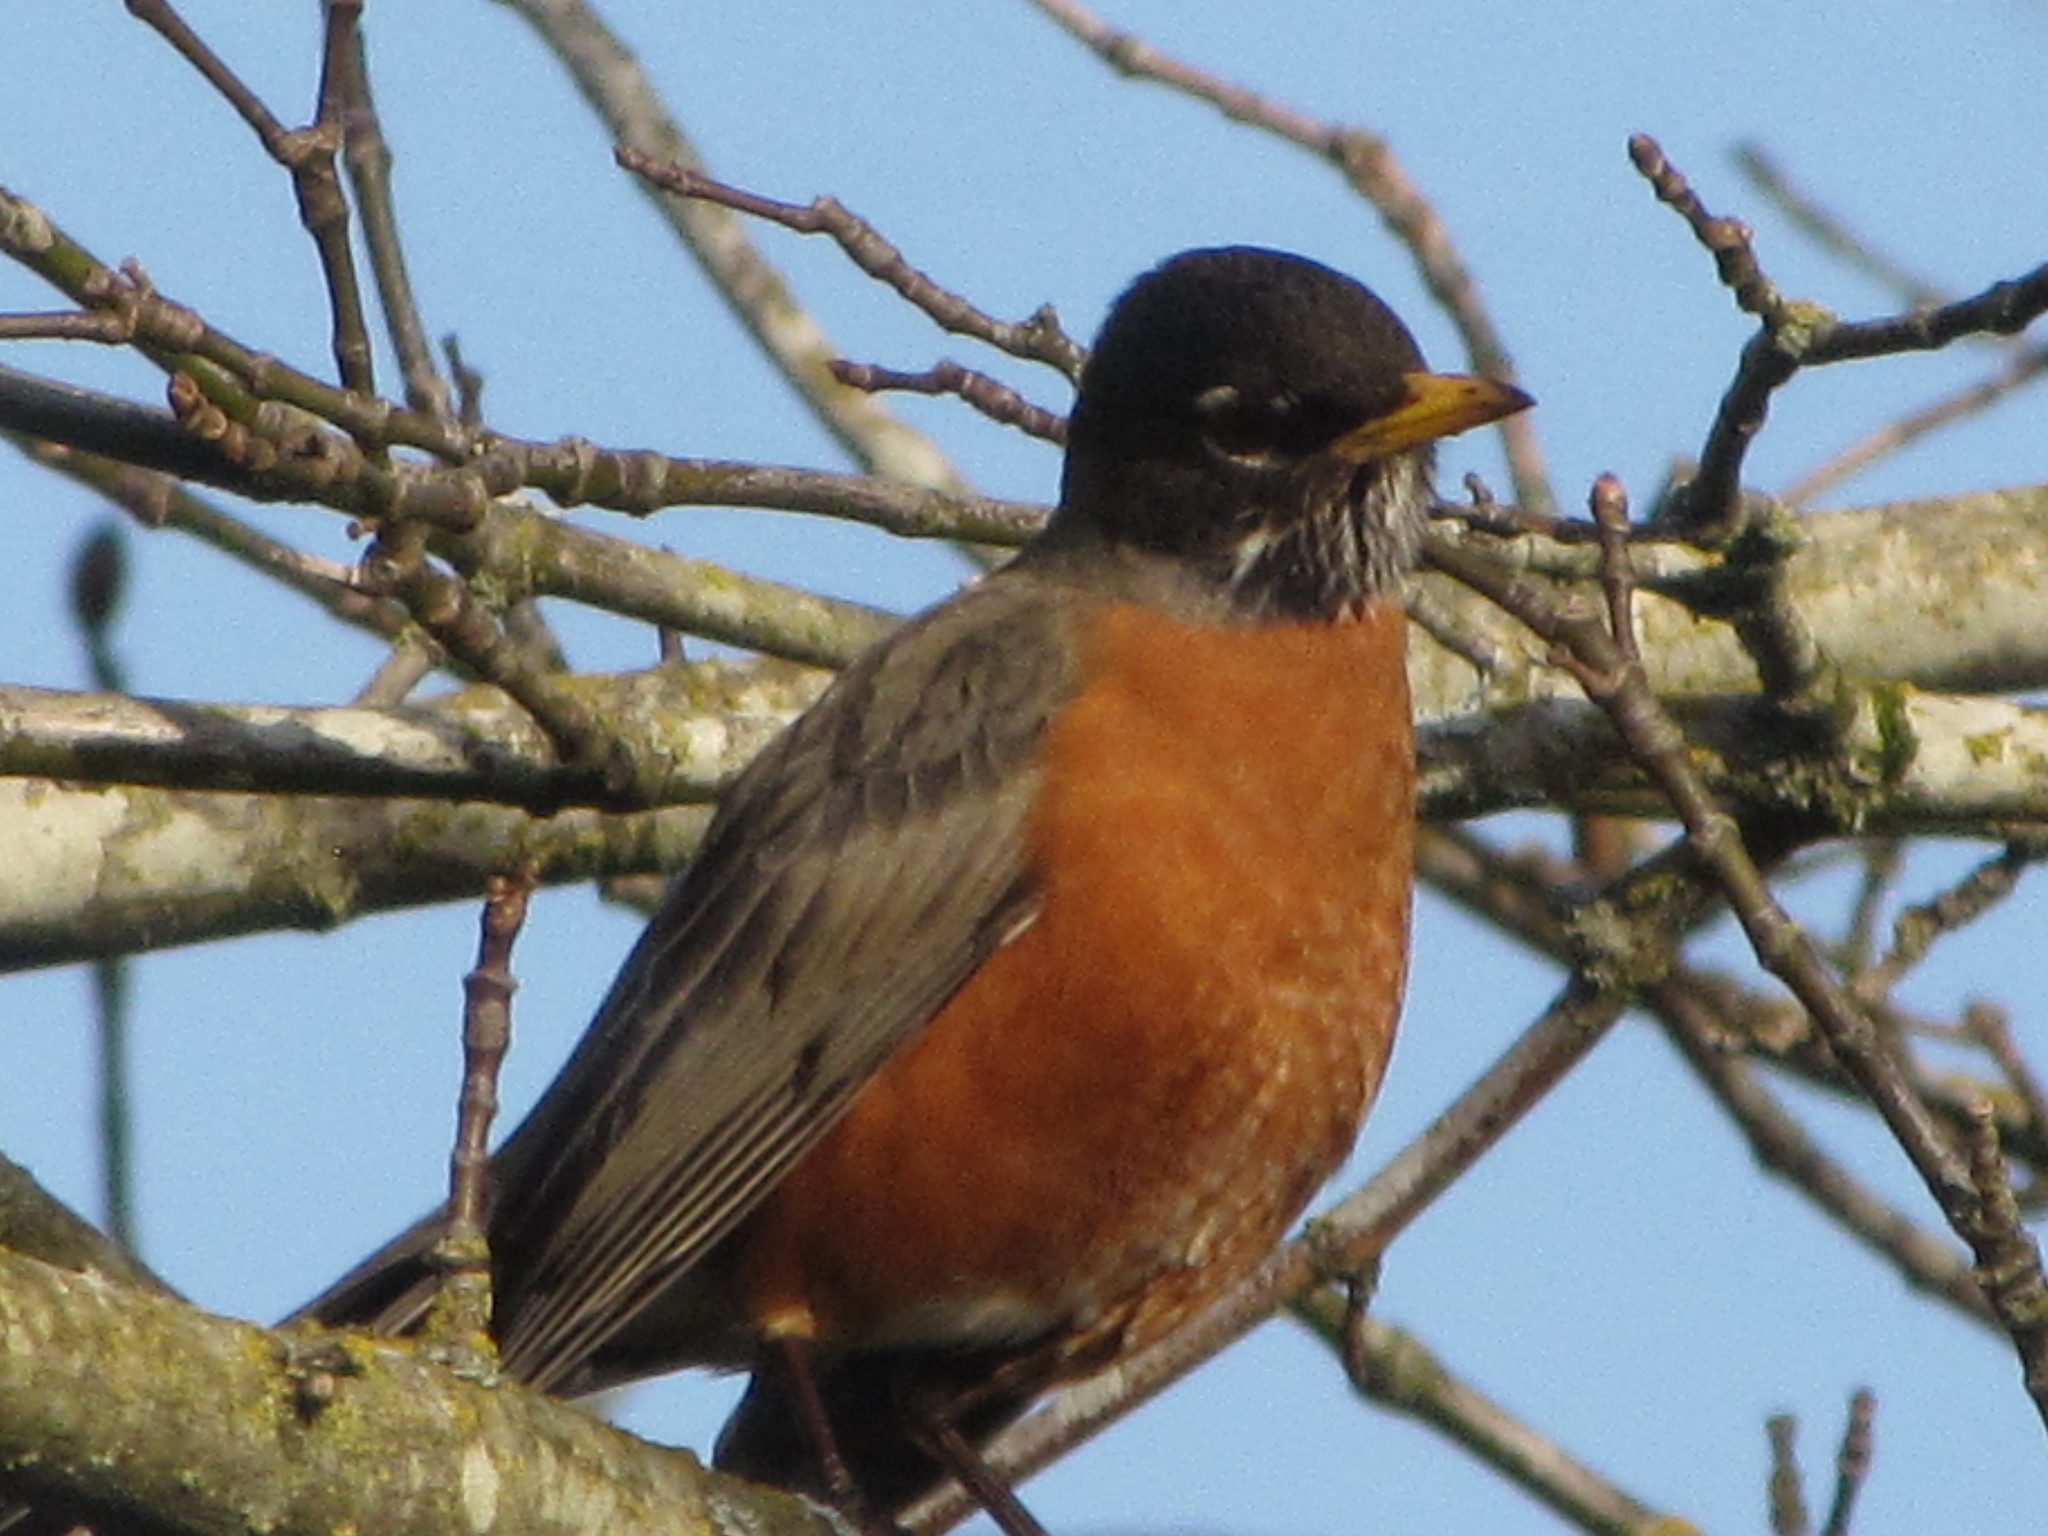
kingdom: Animalia
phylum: Chordata
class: Aves
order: Passeriformes
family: Turdidae
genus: Turdus
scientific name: Turdus migratorius
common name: American robin
